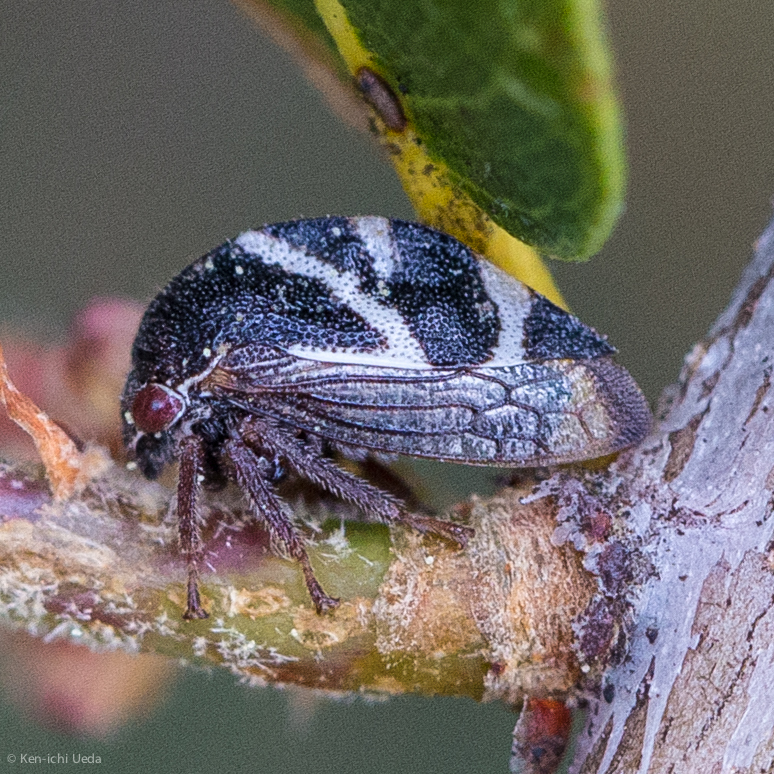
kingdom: Animalia
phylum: Arthropoda
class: Insecta
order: Hemiptera
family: Membracidae
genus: Cyrtolobus
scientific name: Cyrtolobus vanduzii
